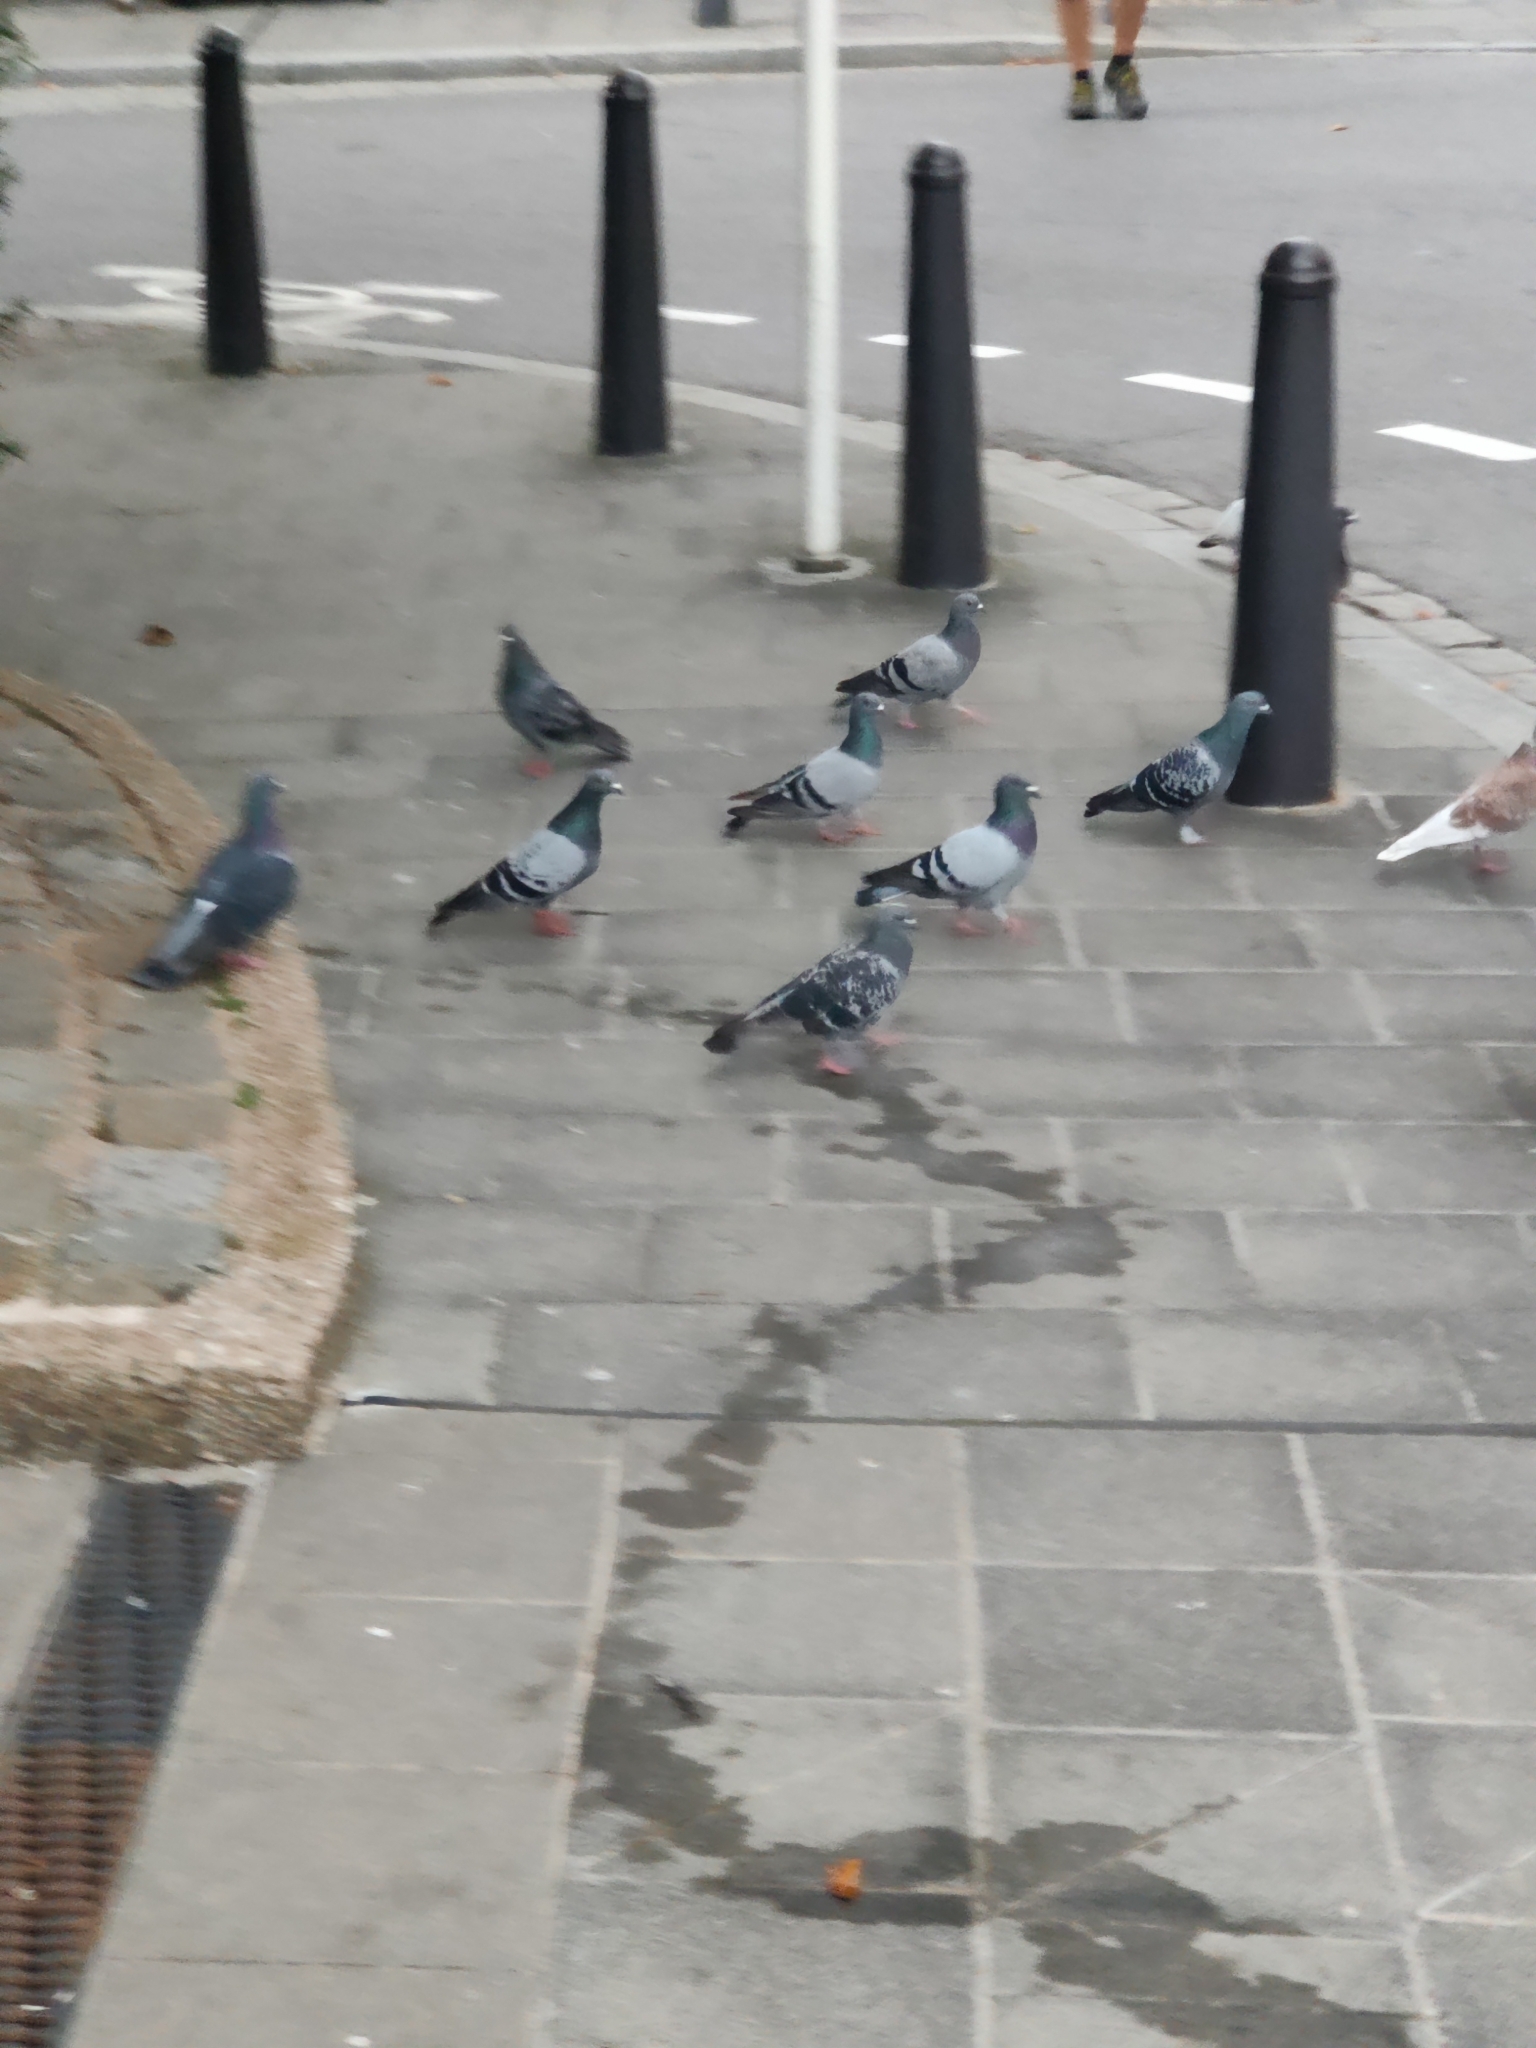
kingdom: Animalia
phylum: Chordata
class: Aves
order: Columbiformes
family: Columbidae
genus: Columba
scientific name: Columba livia
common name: Rock pigeon
